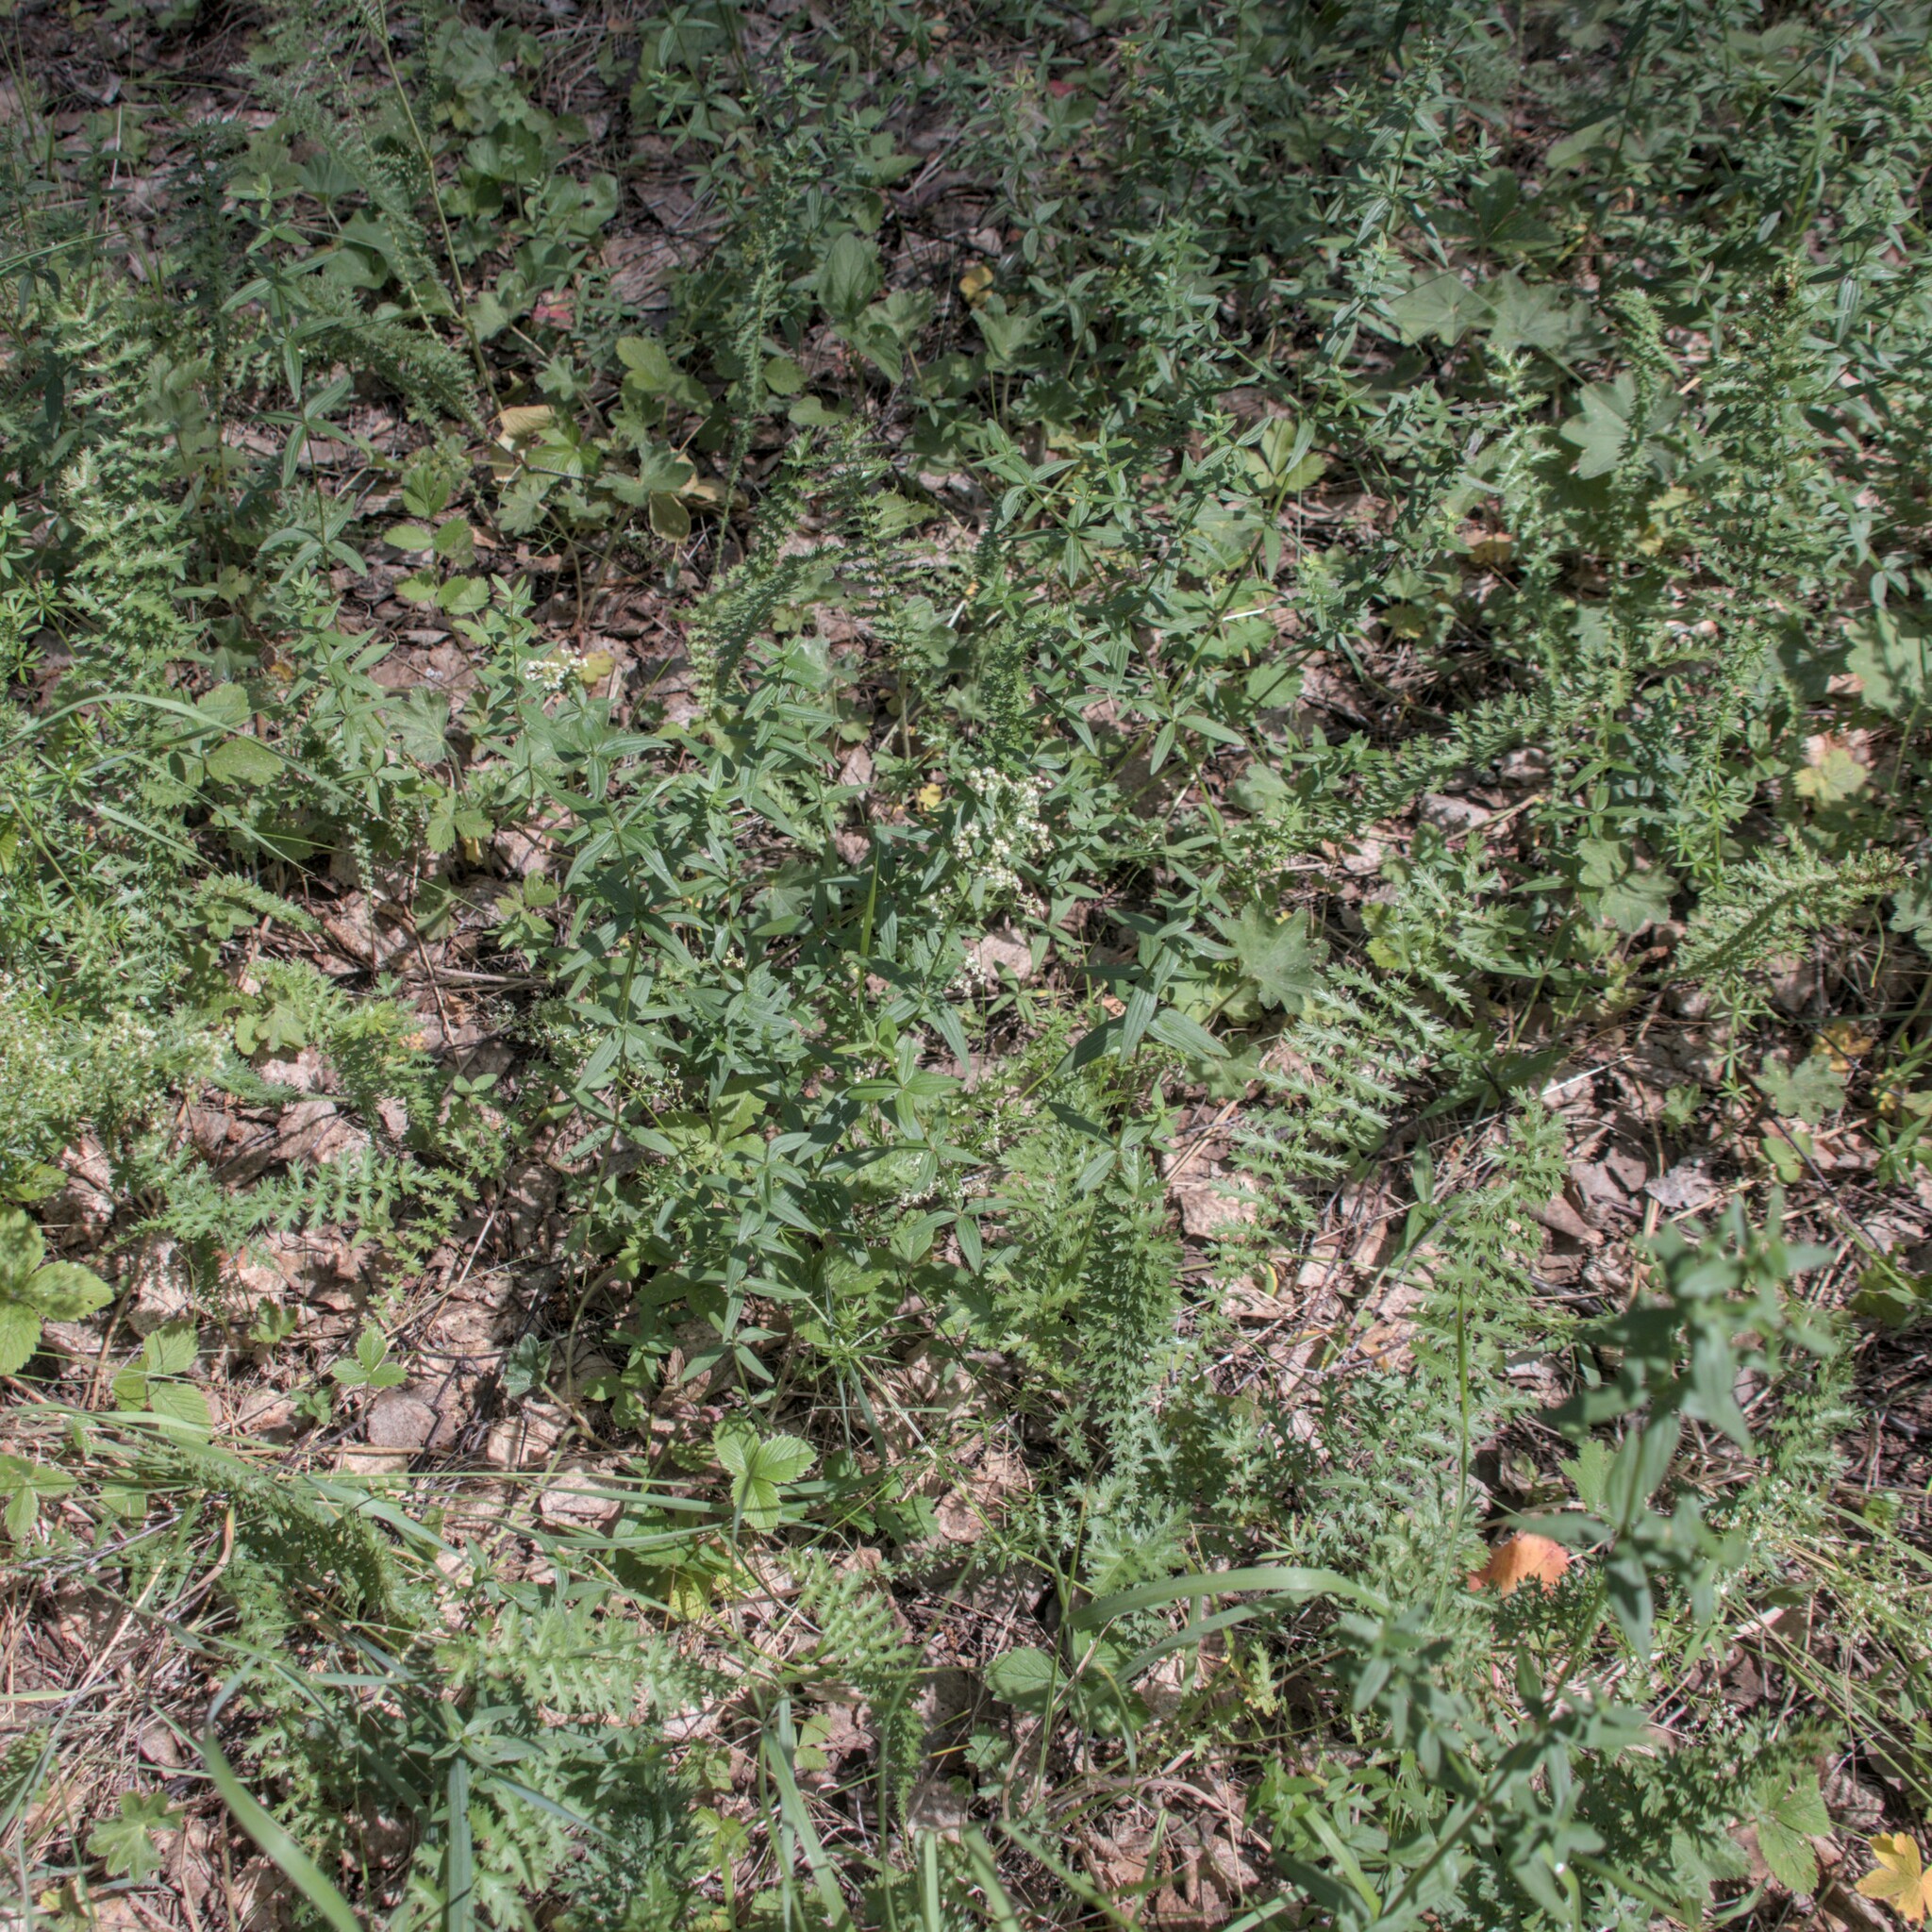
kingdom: Plantae
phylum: Tracheophyta
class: Magnoliopsida
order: Gentianales
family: Rubiaceae
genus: Galium
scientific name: Galium boreale
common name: Northern bedstraw
